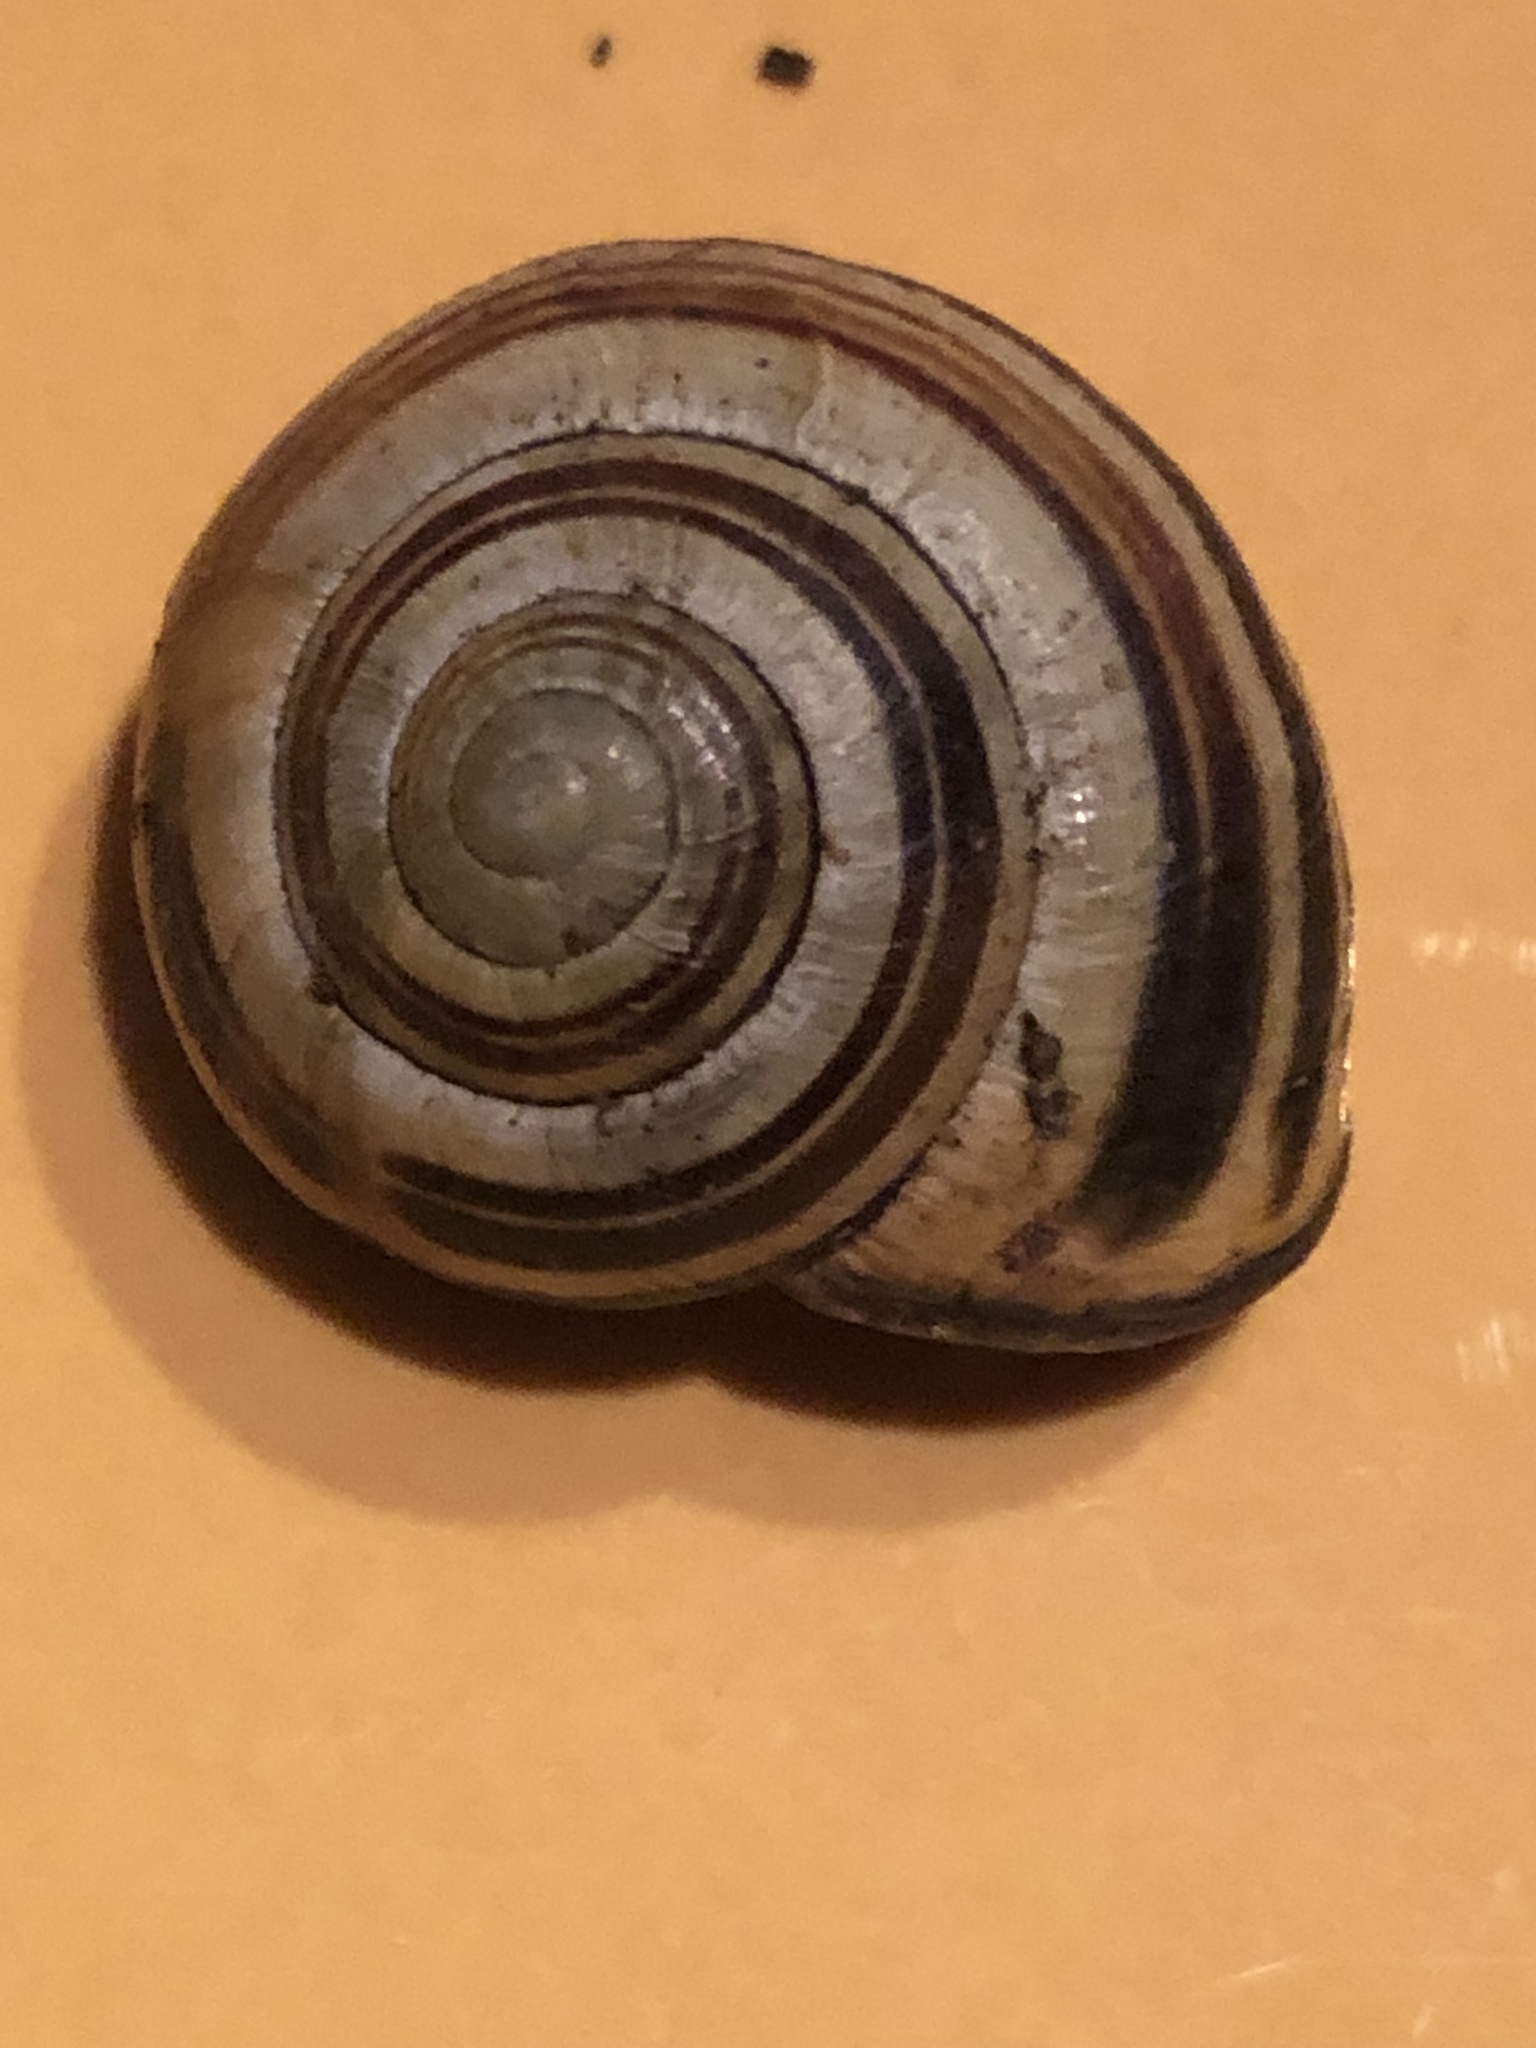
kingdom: Animalia
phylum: Mollusca
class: Gastropoda
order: Stylommatophora
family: Helicidae
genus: Cepaea
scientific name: Cepaea nemoralis
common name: Grovesnail
